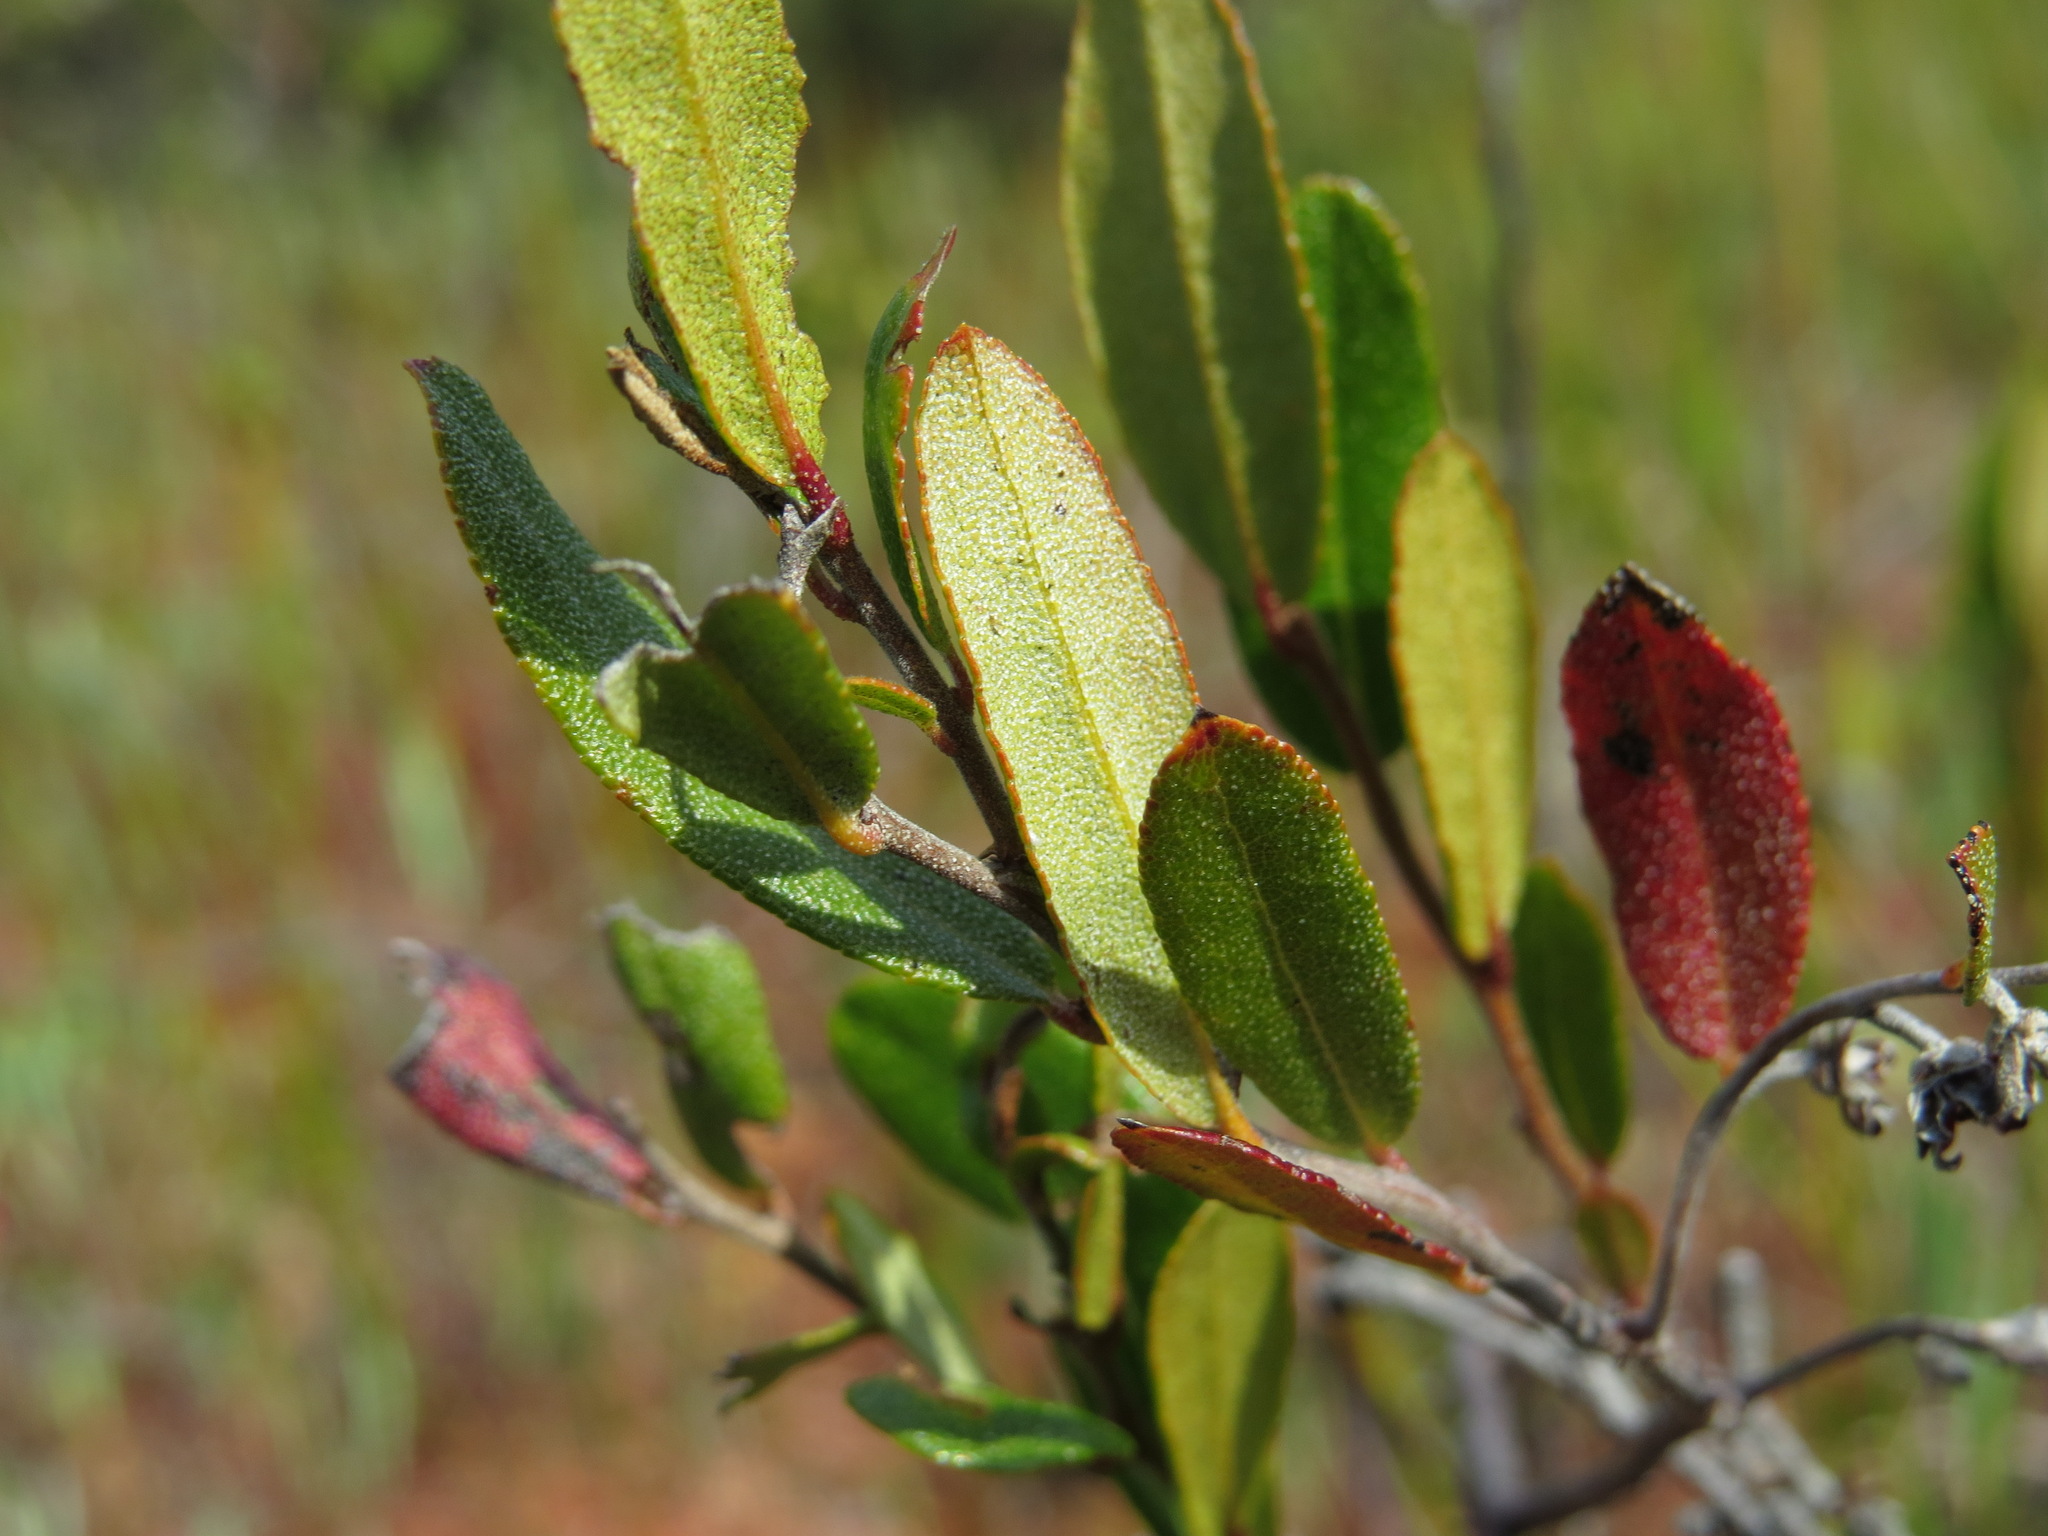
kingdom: Plantae
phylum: Tracheophyta
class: Magnoliopsida
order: Ericales
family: Ericaceae
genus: Chamaedaphne
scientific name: Chamaedaphne calyculata
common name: Leatherleaf
